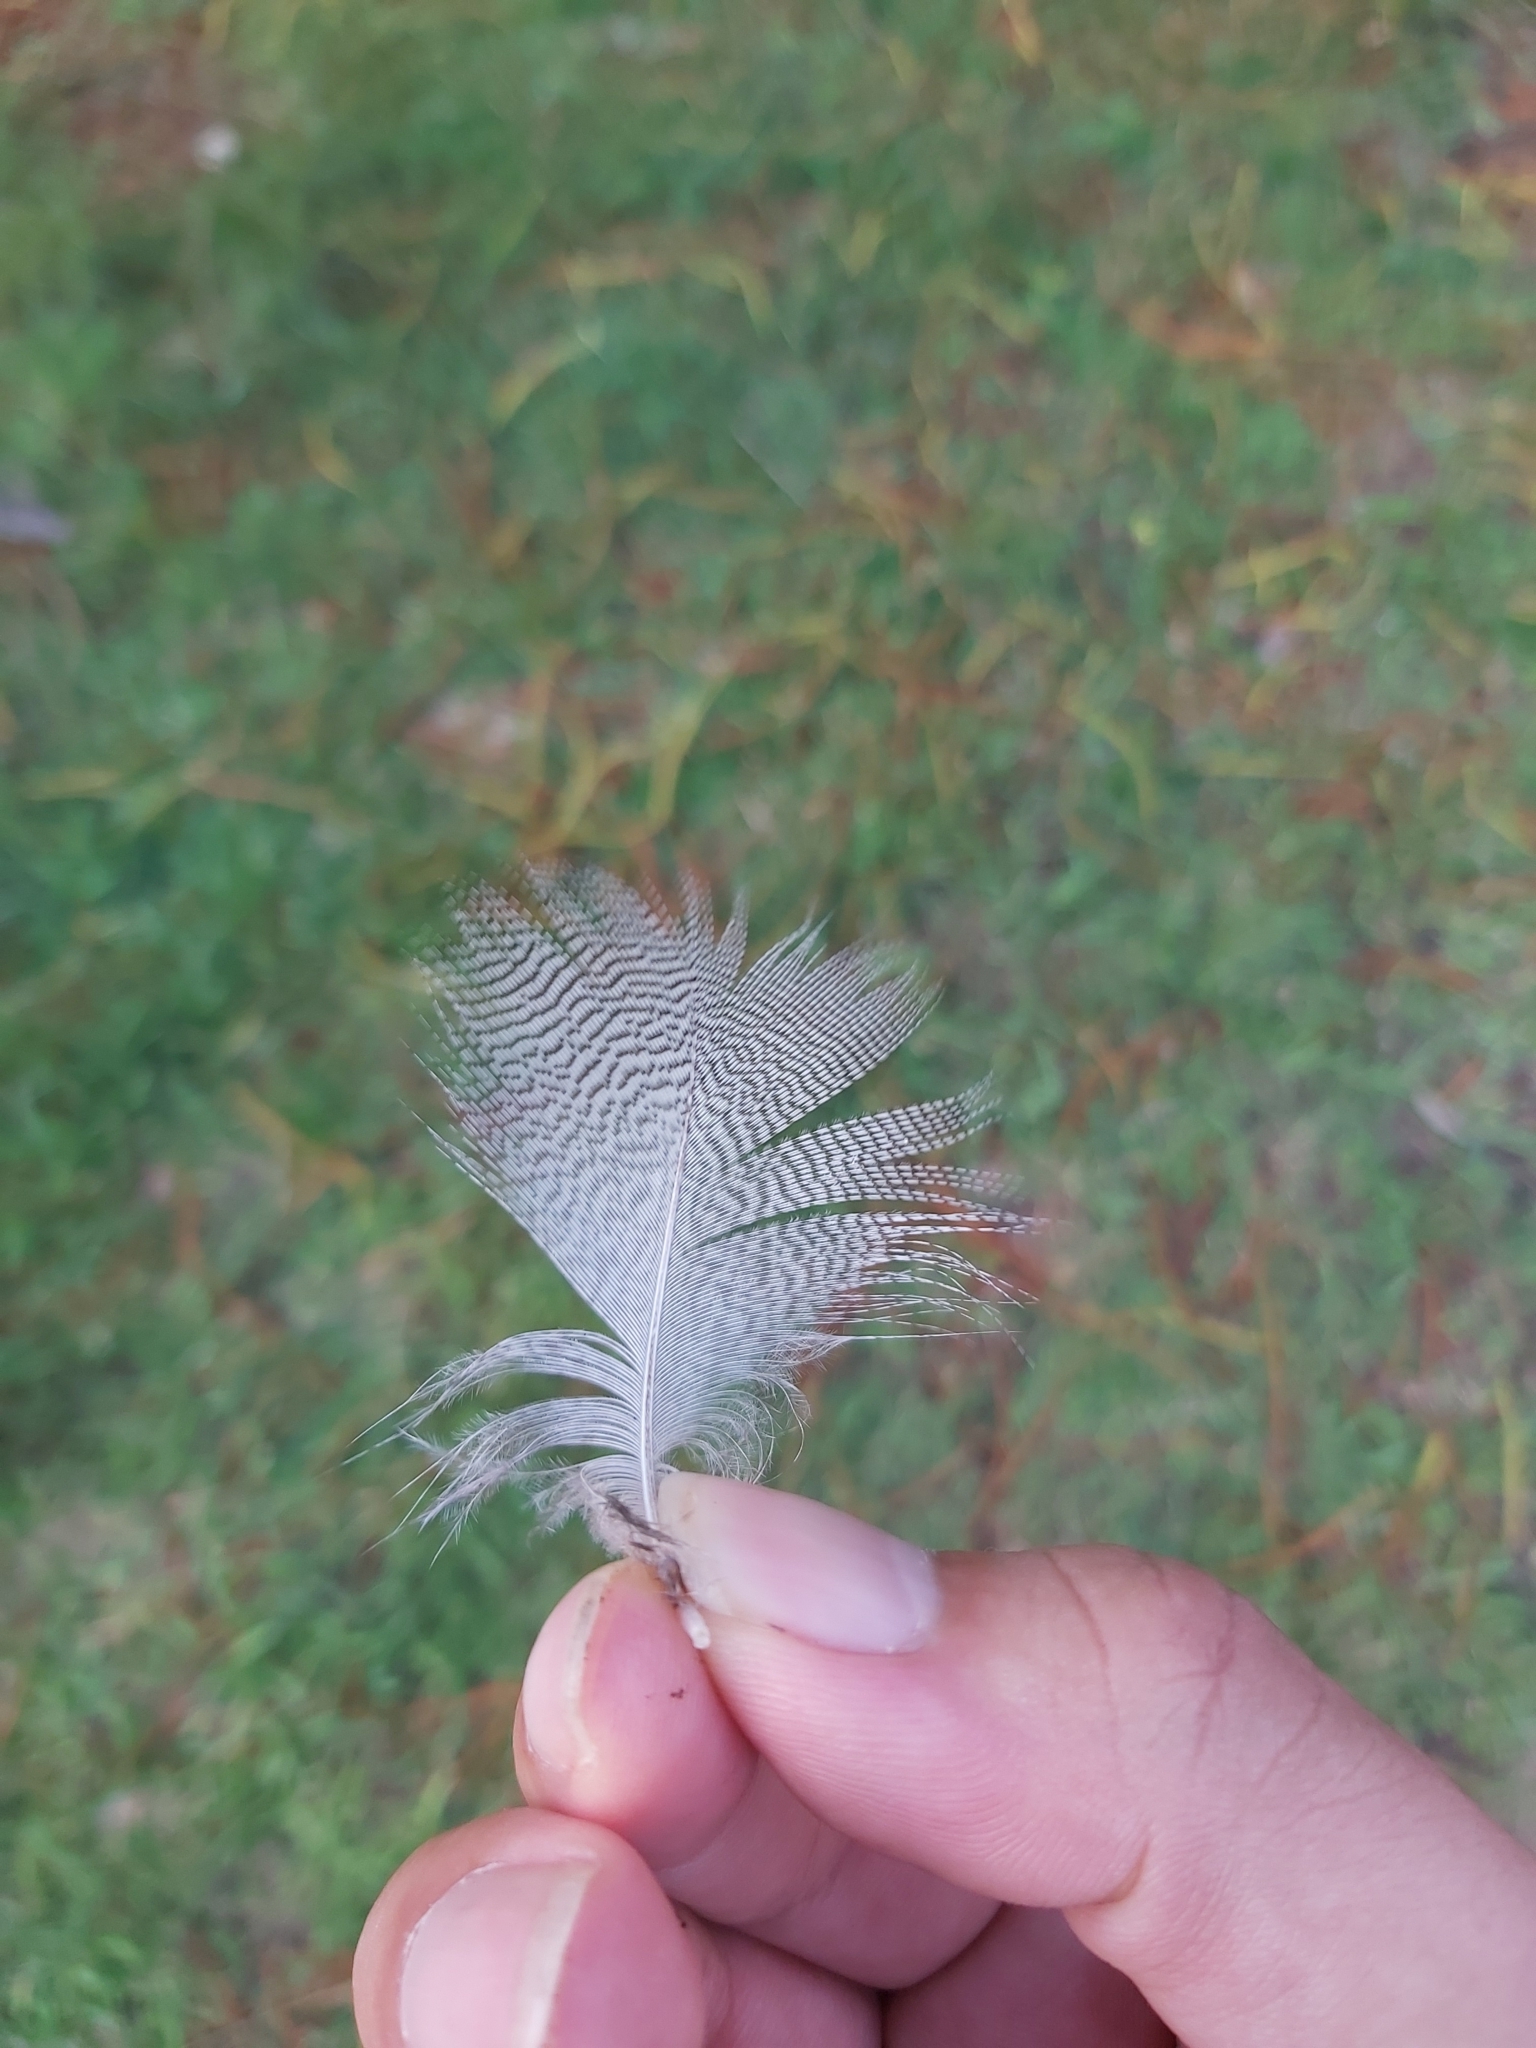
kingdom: Animalia
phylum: Chordata
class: Aves
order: Anseriformes
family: Anatidae
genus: Chenonetta
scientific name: Chenonetta jubata
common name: Maned duck
